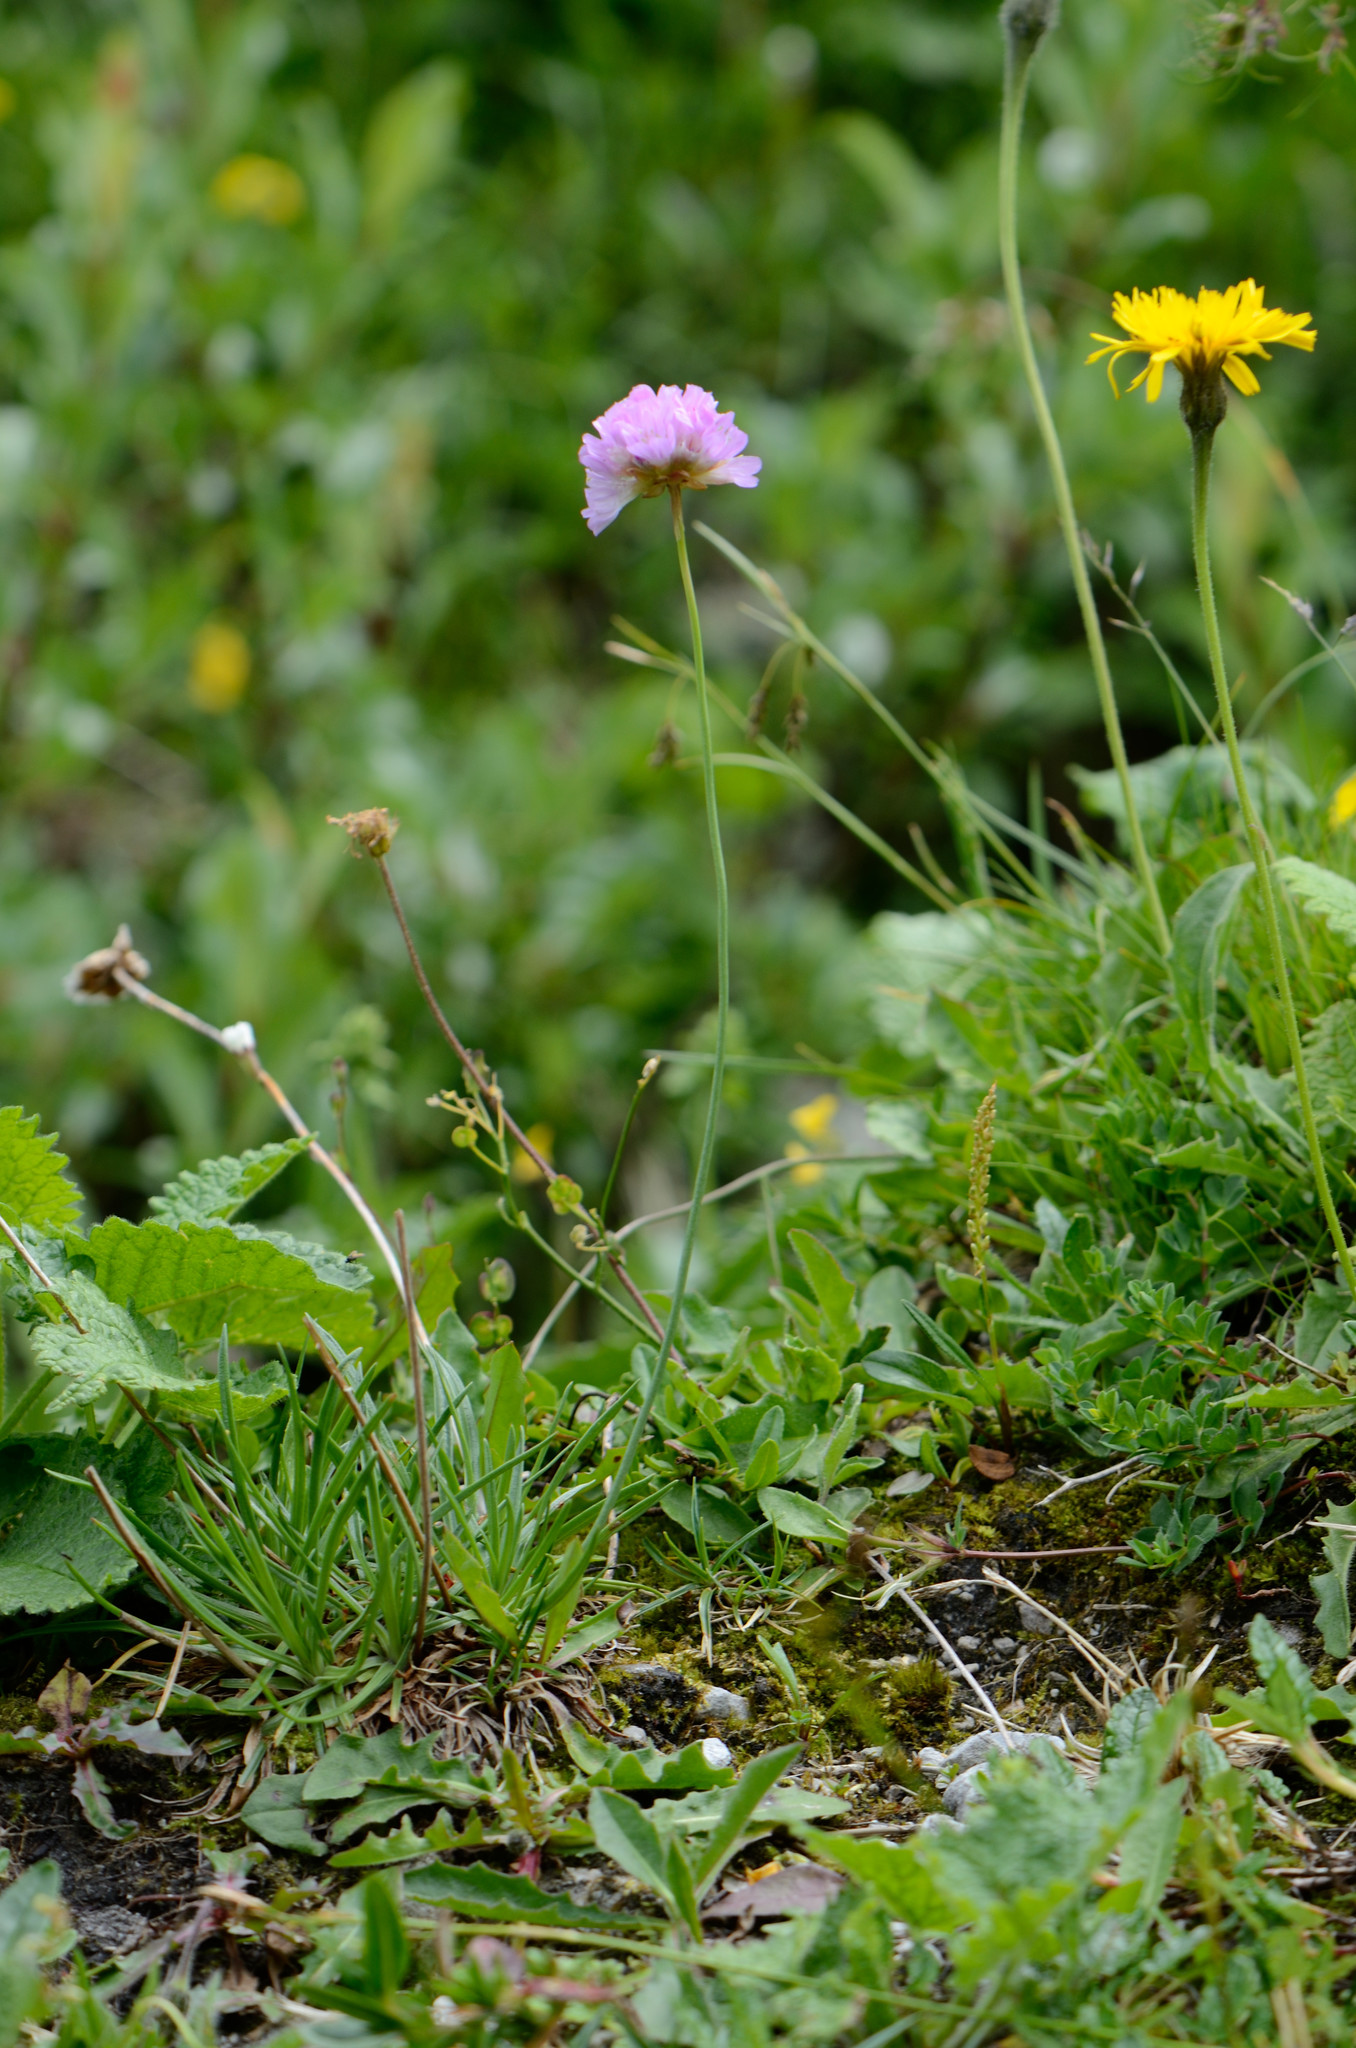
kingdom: Plantae
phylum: Tracheophyta
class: Magnoliopsida
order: Caryophyllales
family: Plumbaginaceae
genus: Armeria
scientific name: Armeria alpina
